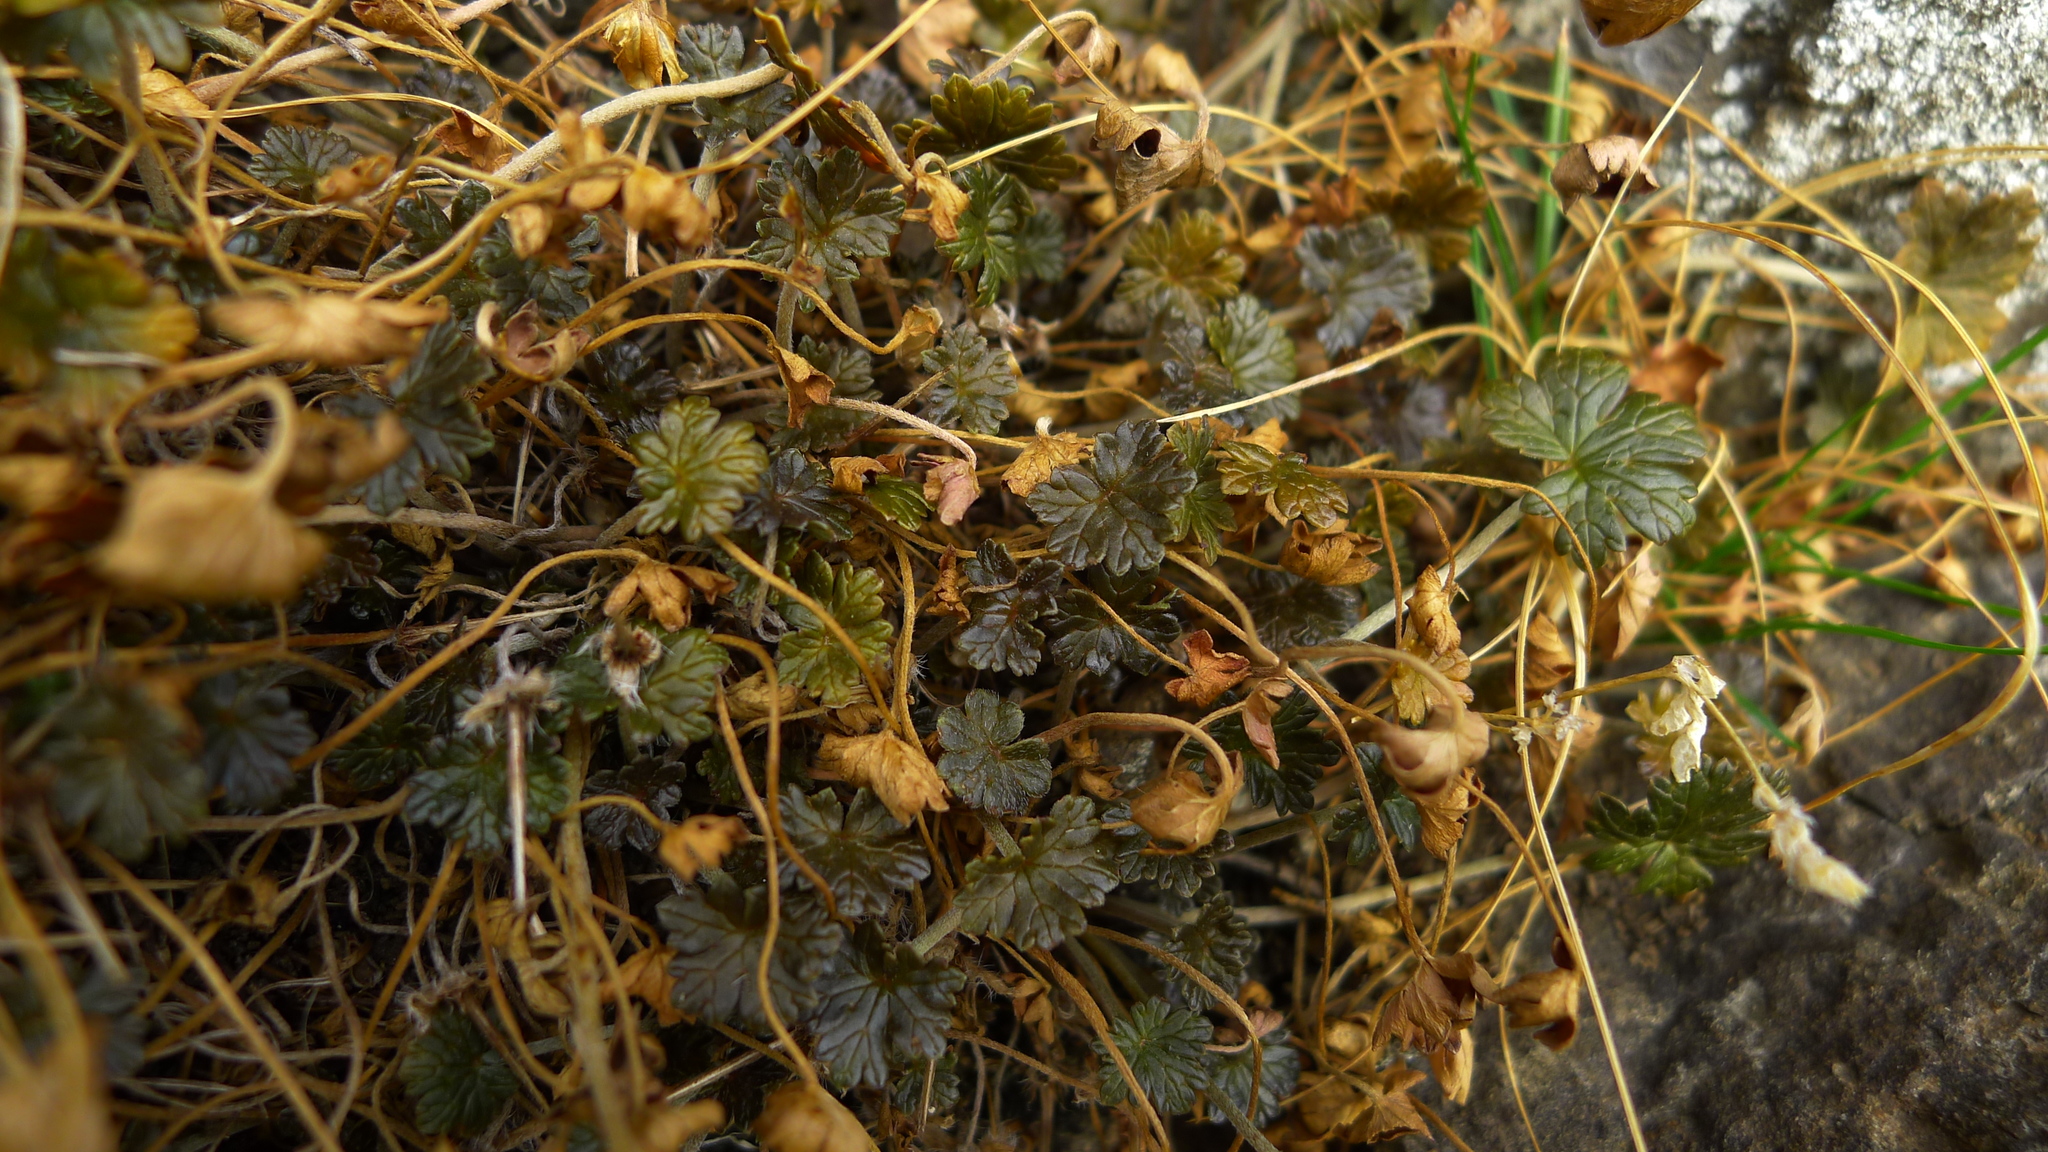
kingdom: Plantae
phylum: Tracheophyta
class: Magnoliopsida
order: Geraniales
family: Geraniaceae
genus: Geranium
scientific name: Geranium brevicaule
